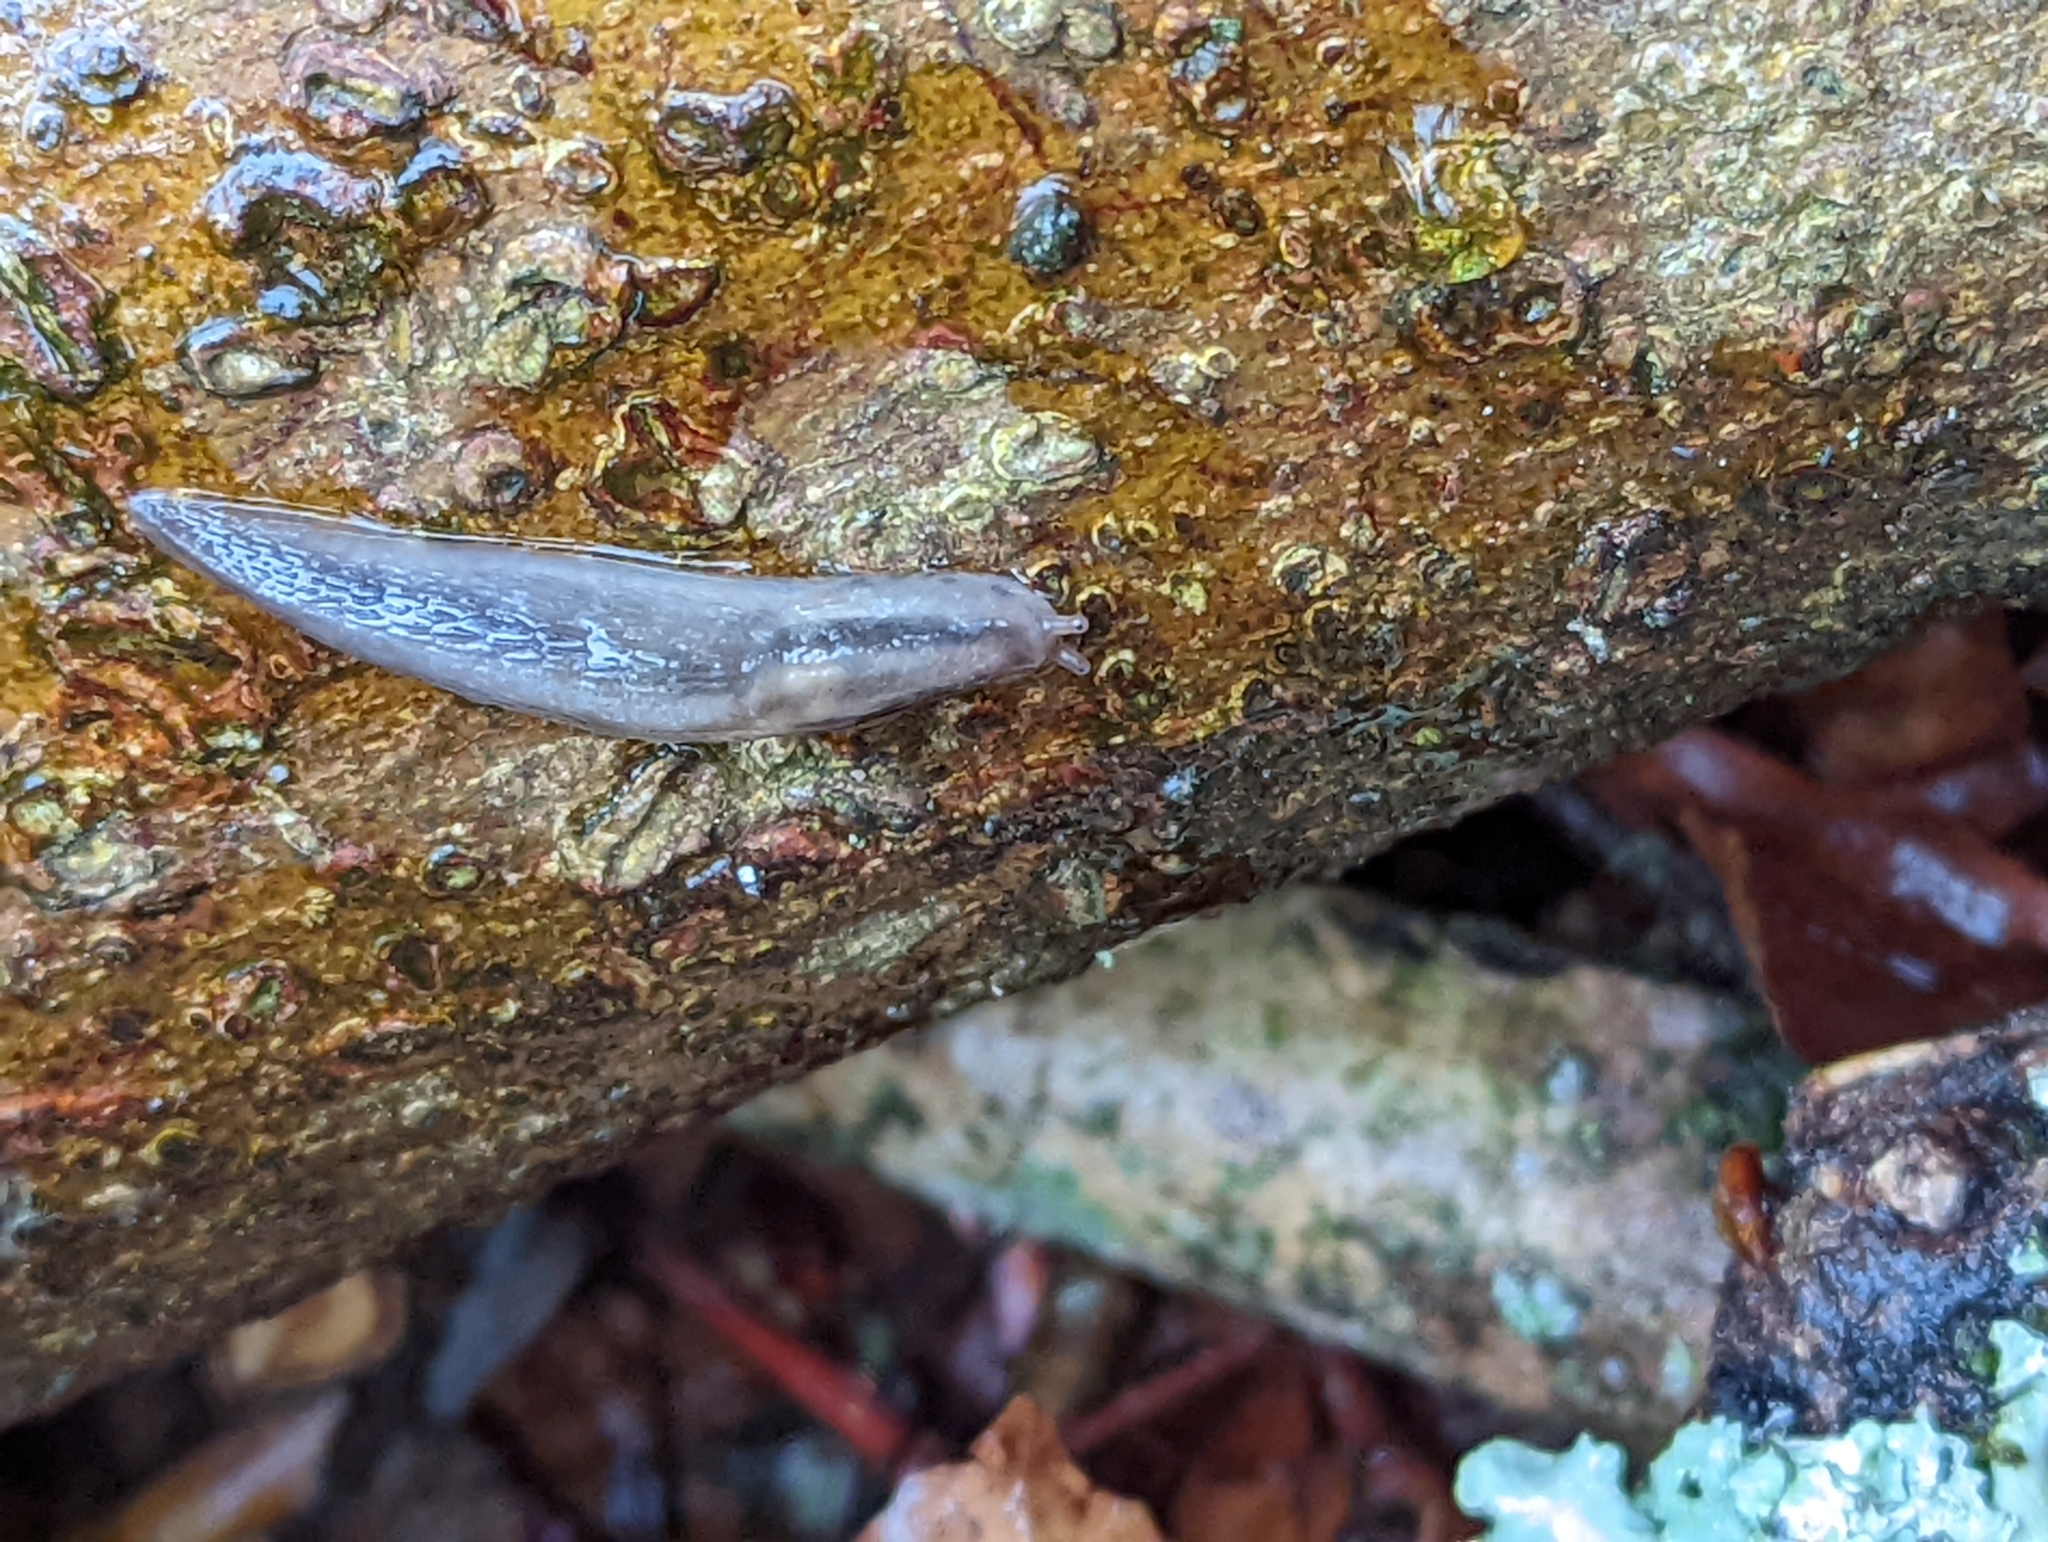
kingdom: Animalia
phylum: Mollusca
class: Gastropoda
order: Stylommatophora
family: Limacidae
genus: Lehmannia
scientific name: Lehmannia marginata
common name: Tree slug
